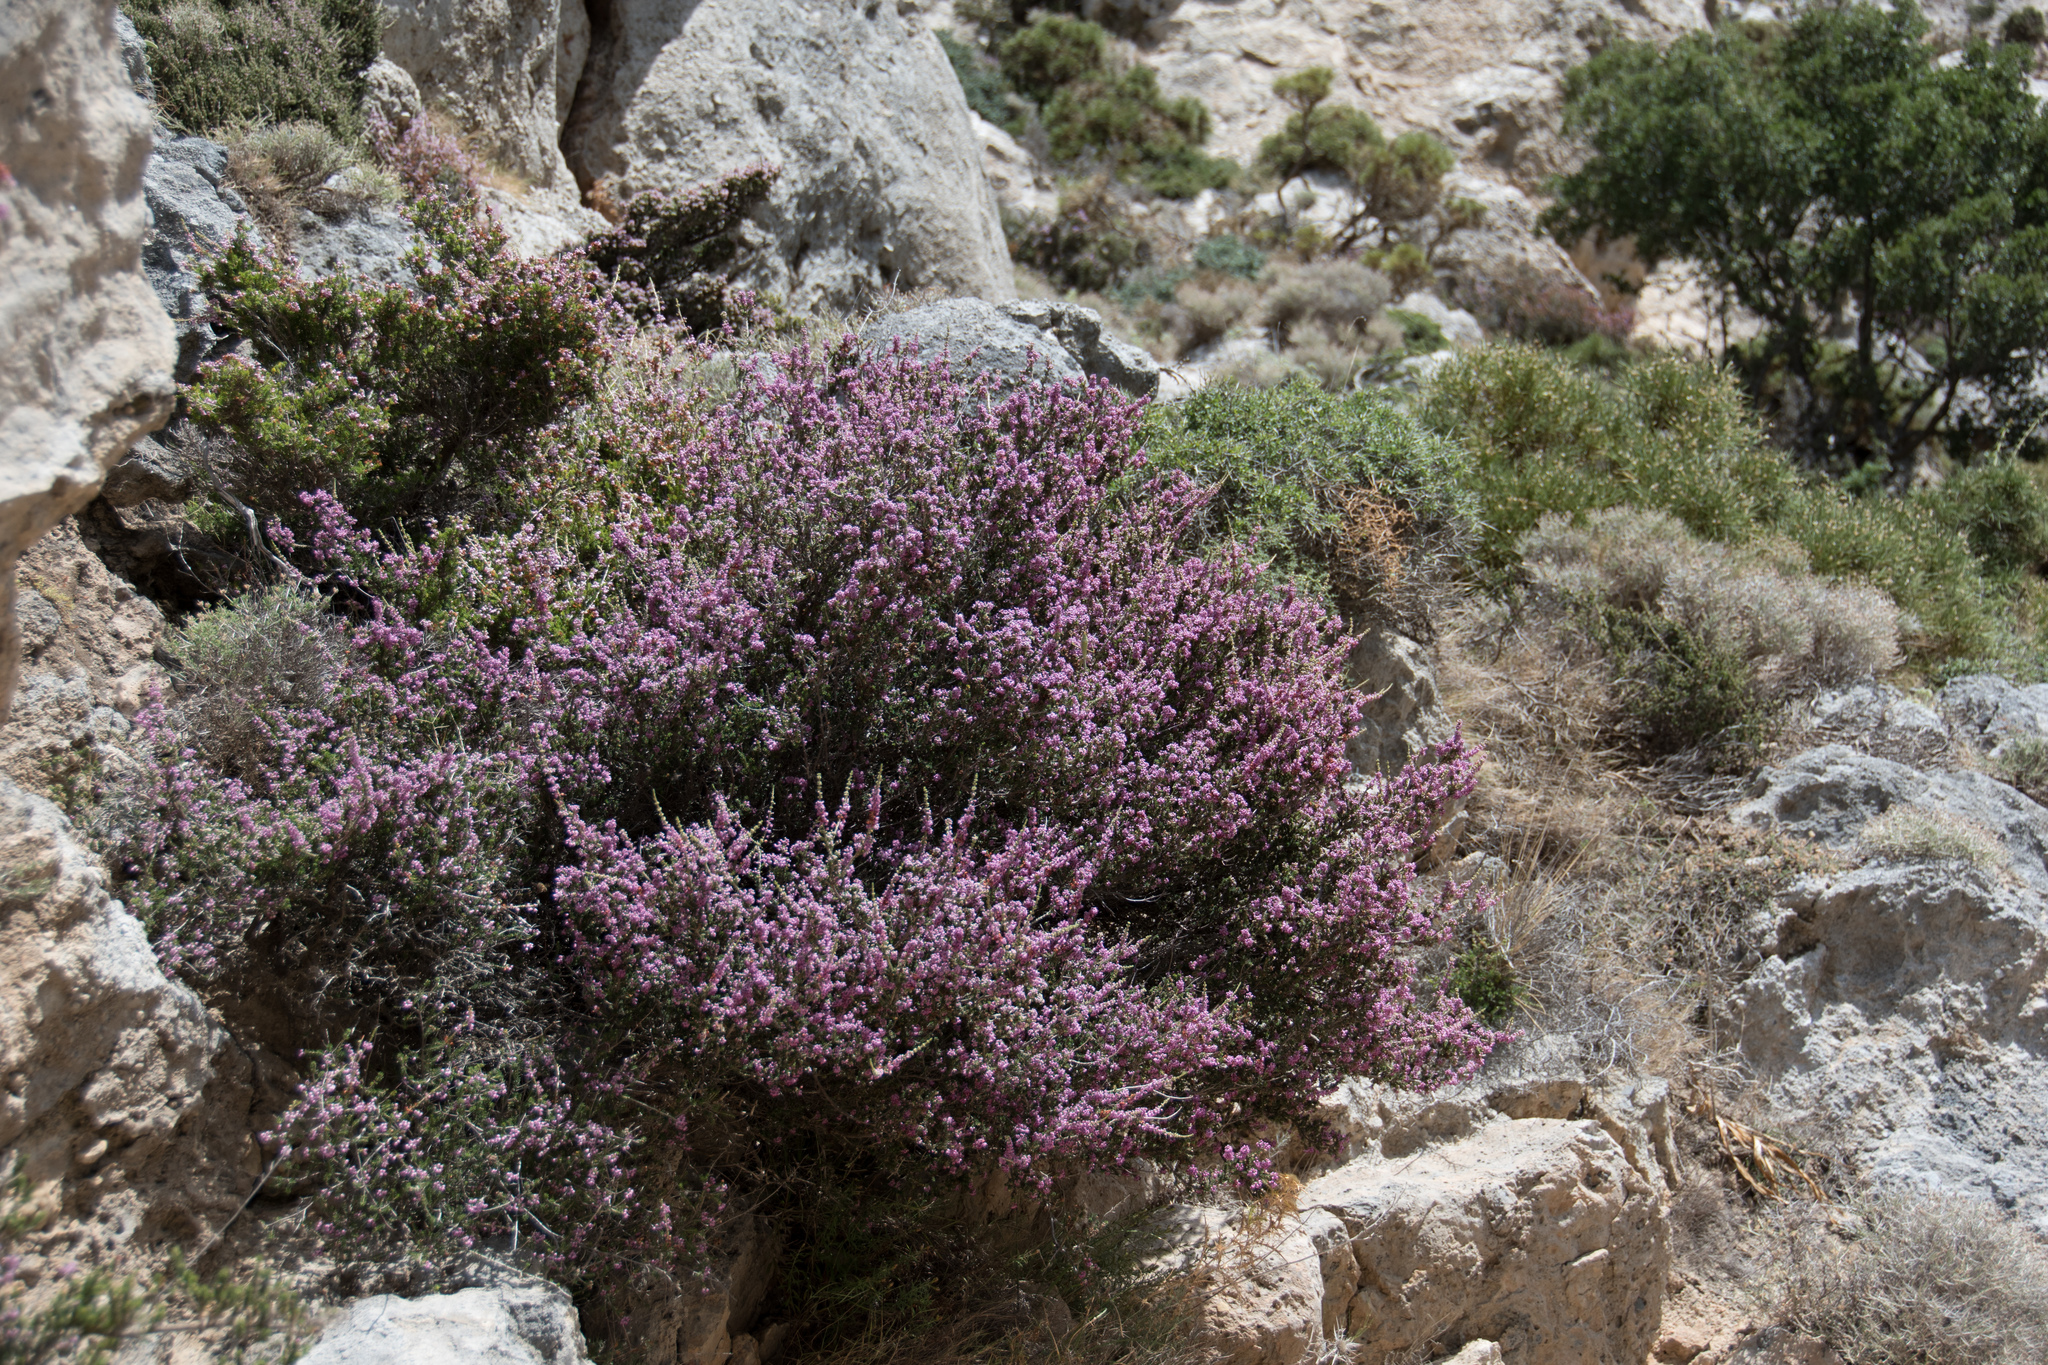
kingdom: Plantae
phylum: Tracheophyta
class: Magnoliopsida
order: Ericales
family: Ericaceae
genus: Erica
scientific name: Erica manipuliflora
